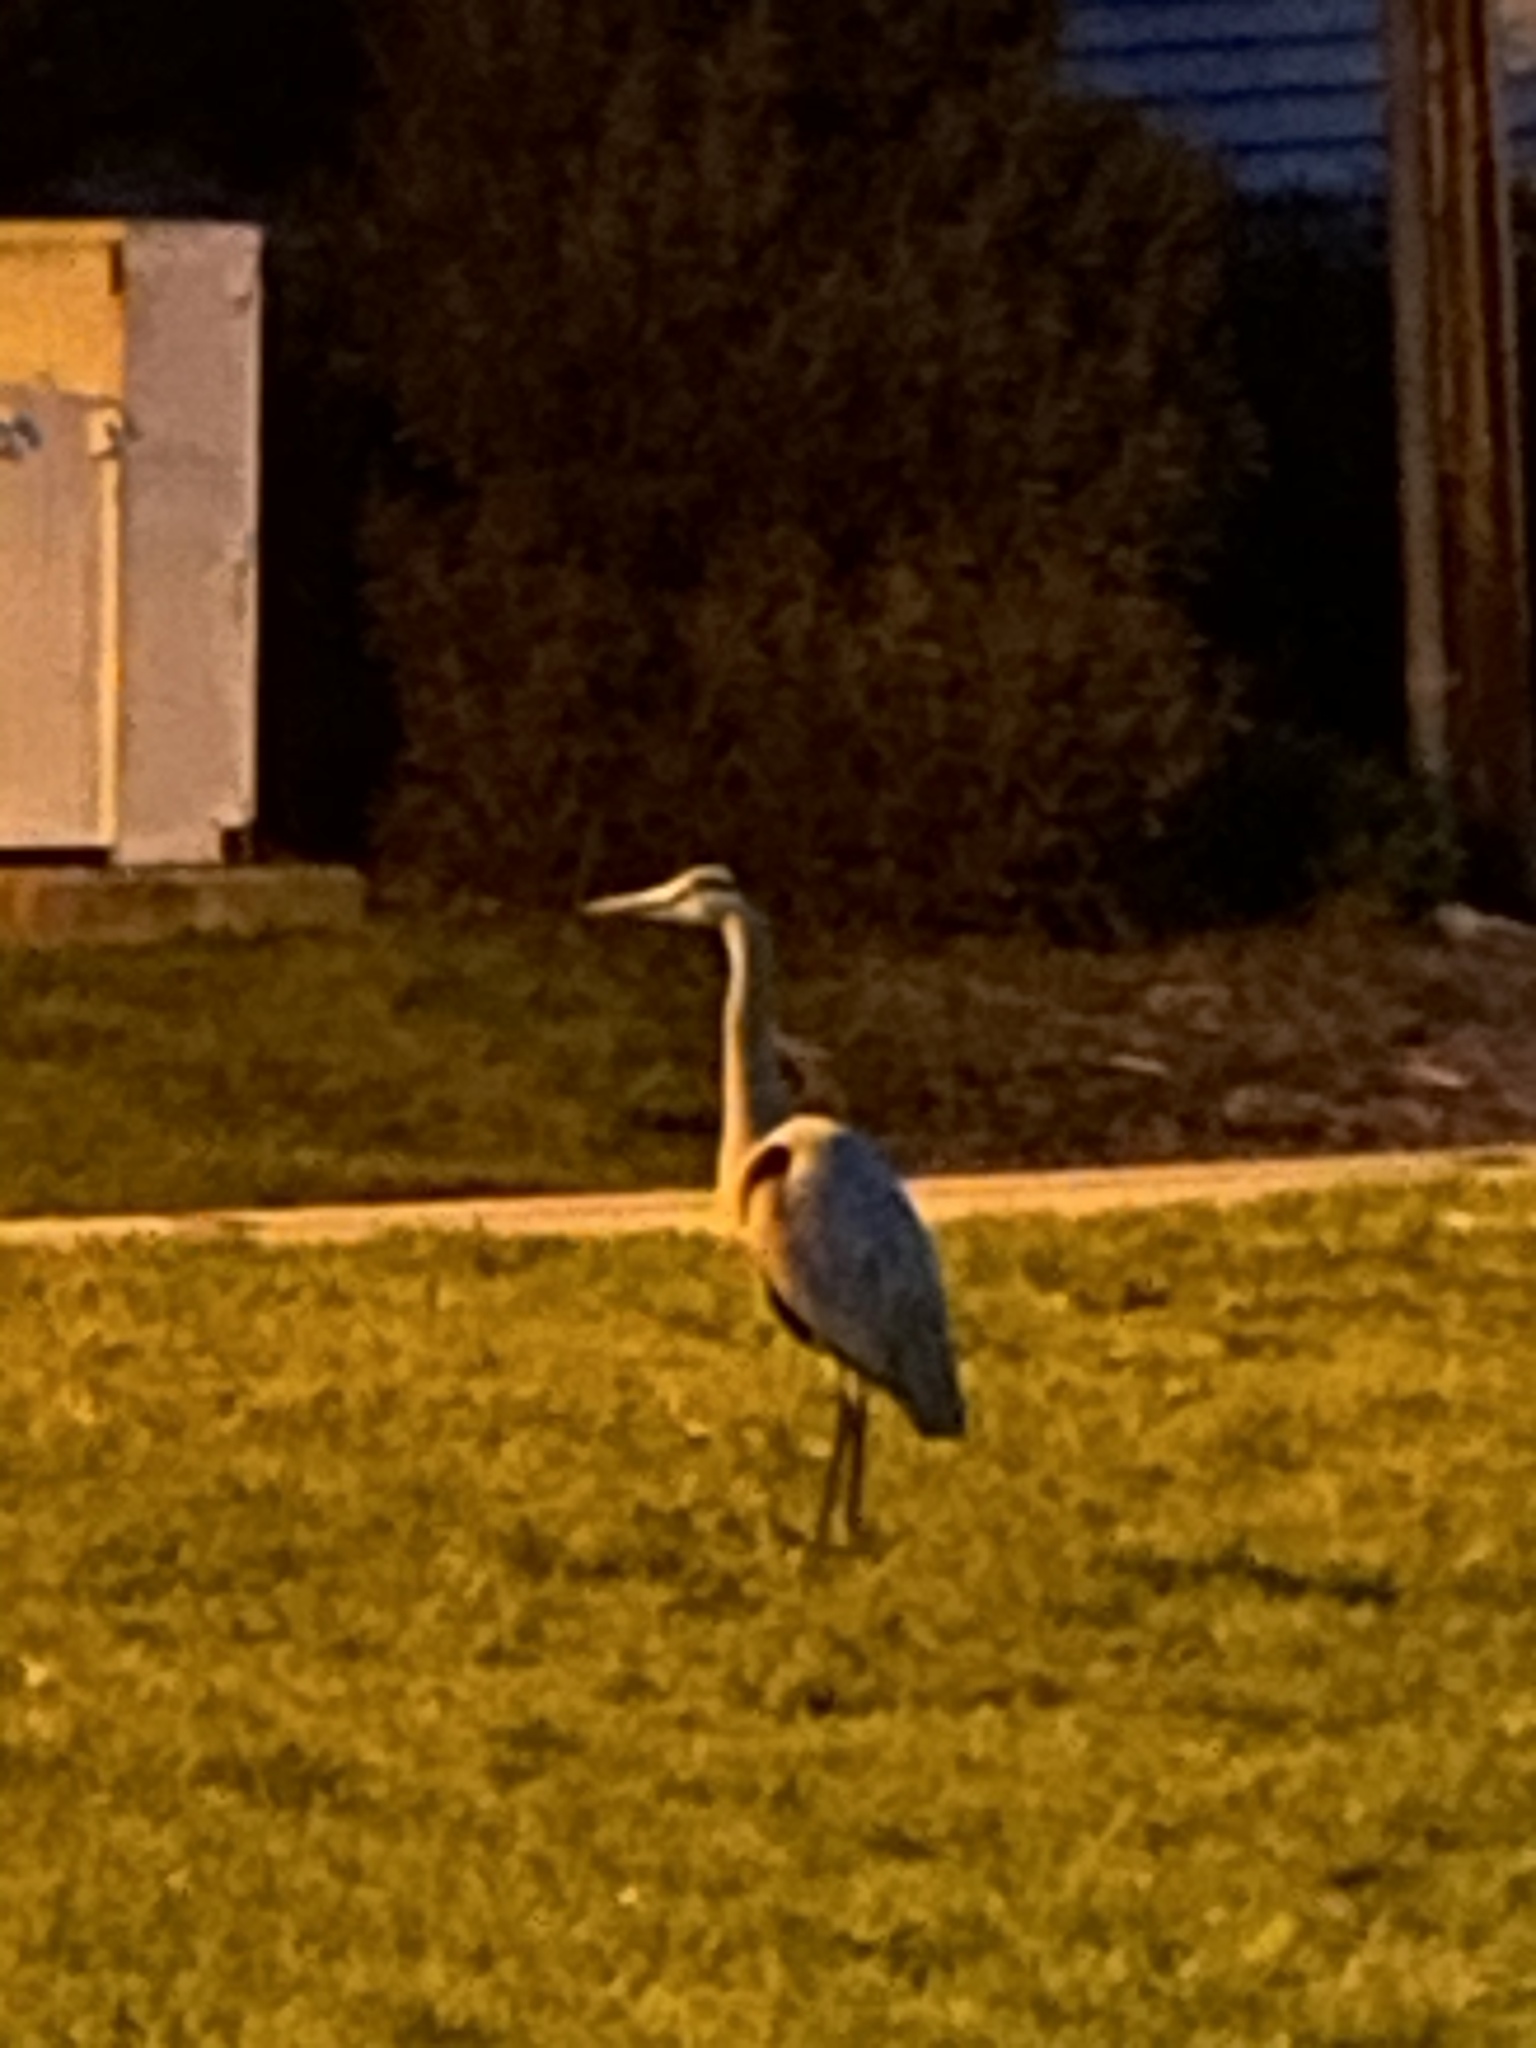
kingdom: Animalia
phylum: Chordata
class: Aves
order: Pelecaniformes
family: Ardeidae
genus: Ardea
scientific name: Ardea herodias
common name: Great blue heron
